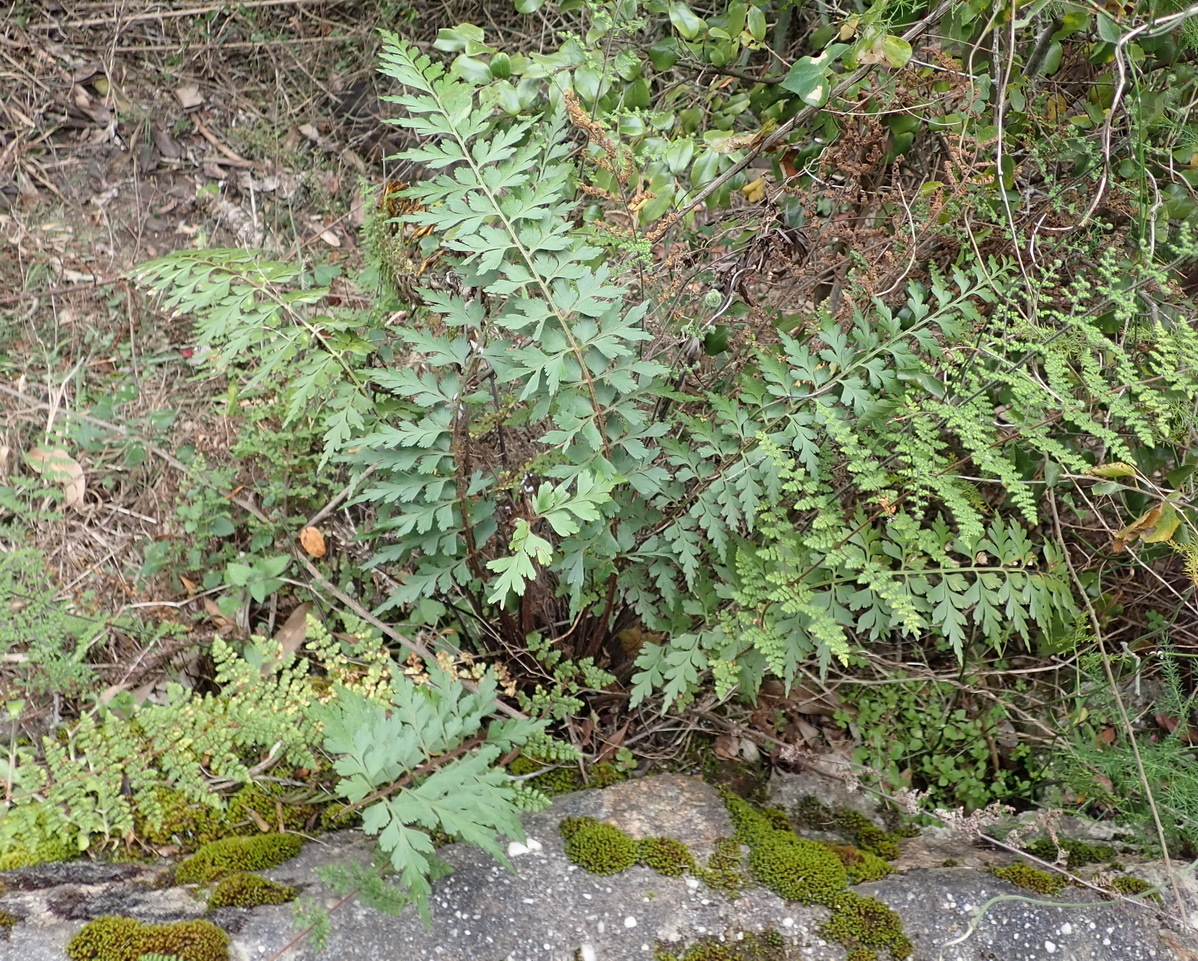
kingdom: Plantae
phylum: Tracheophyta
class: Polypodiopsida
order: Polypodiales
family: Aspleniaceae
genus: Asplenium
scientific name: Asplenium aethiopicum
